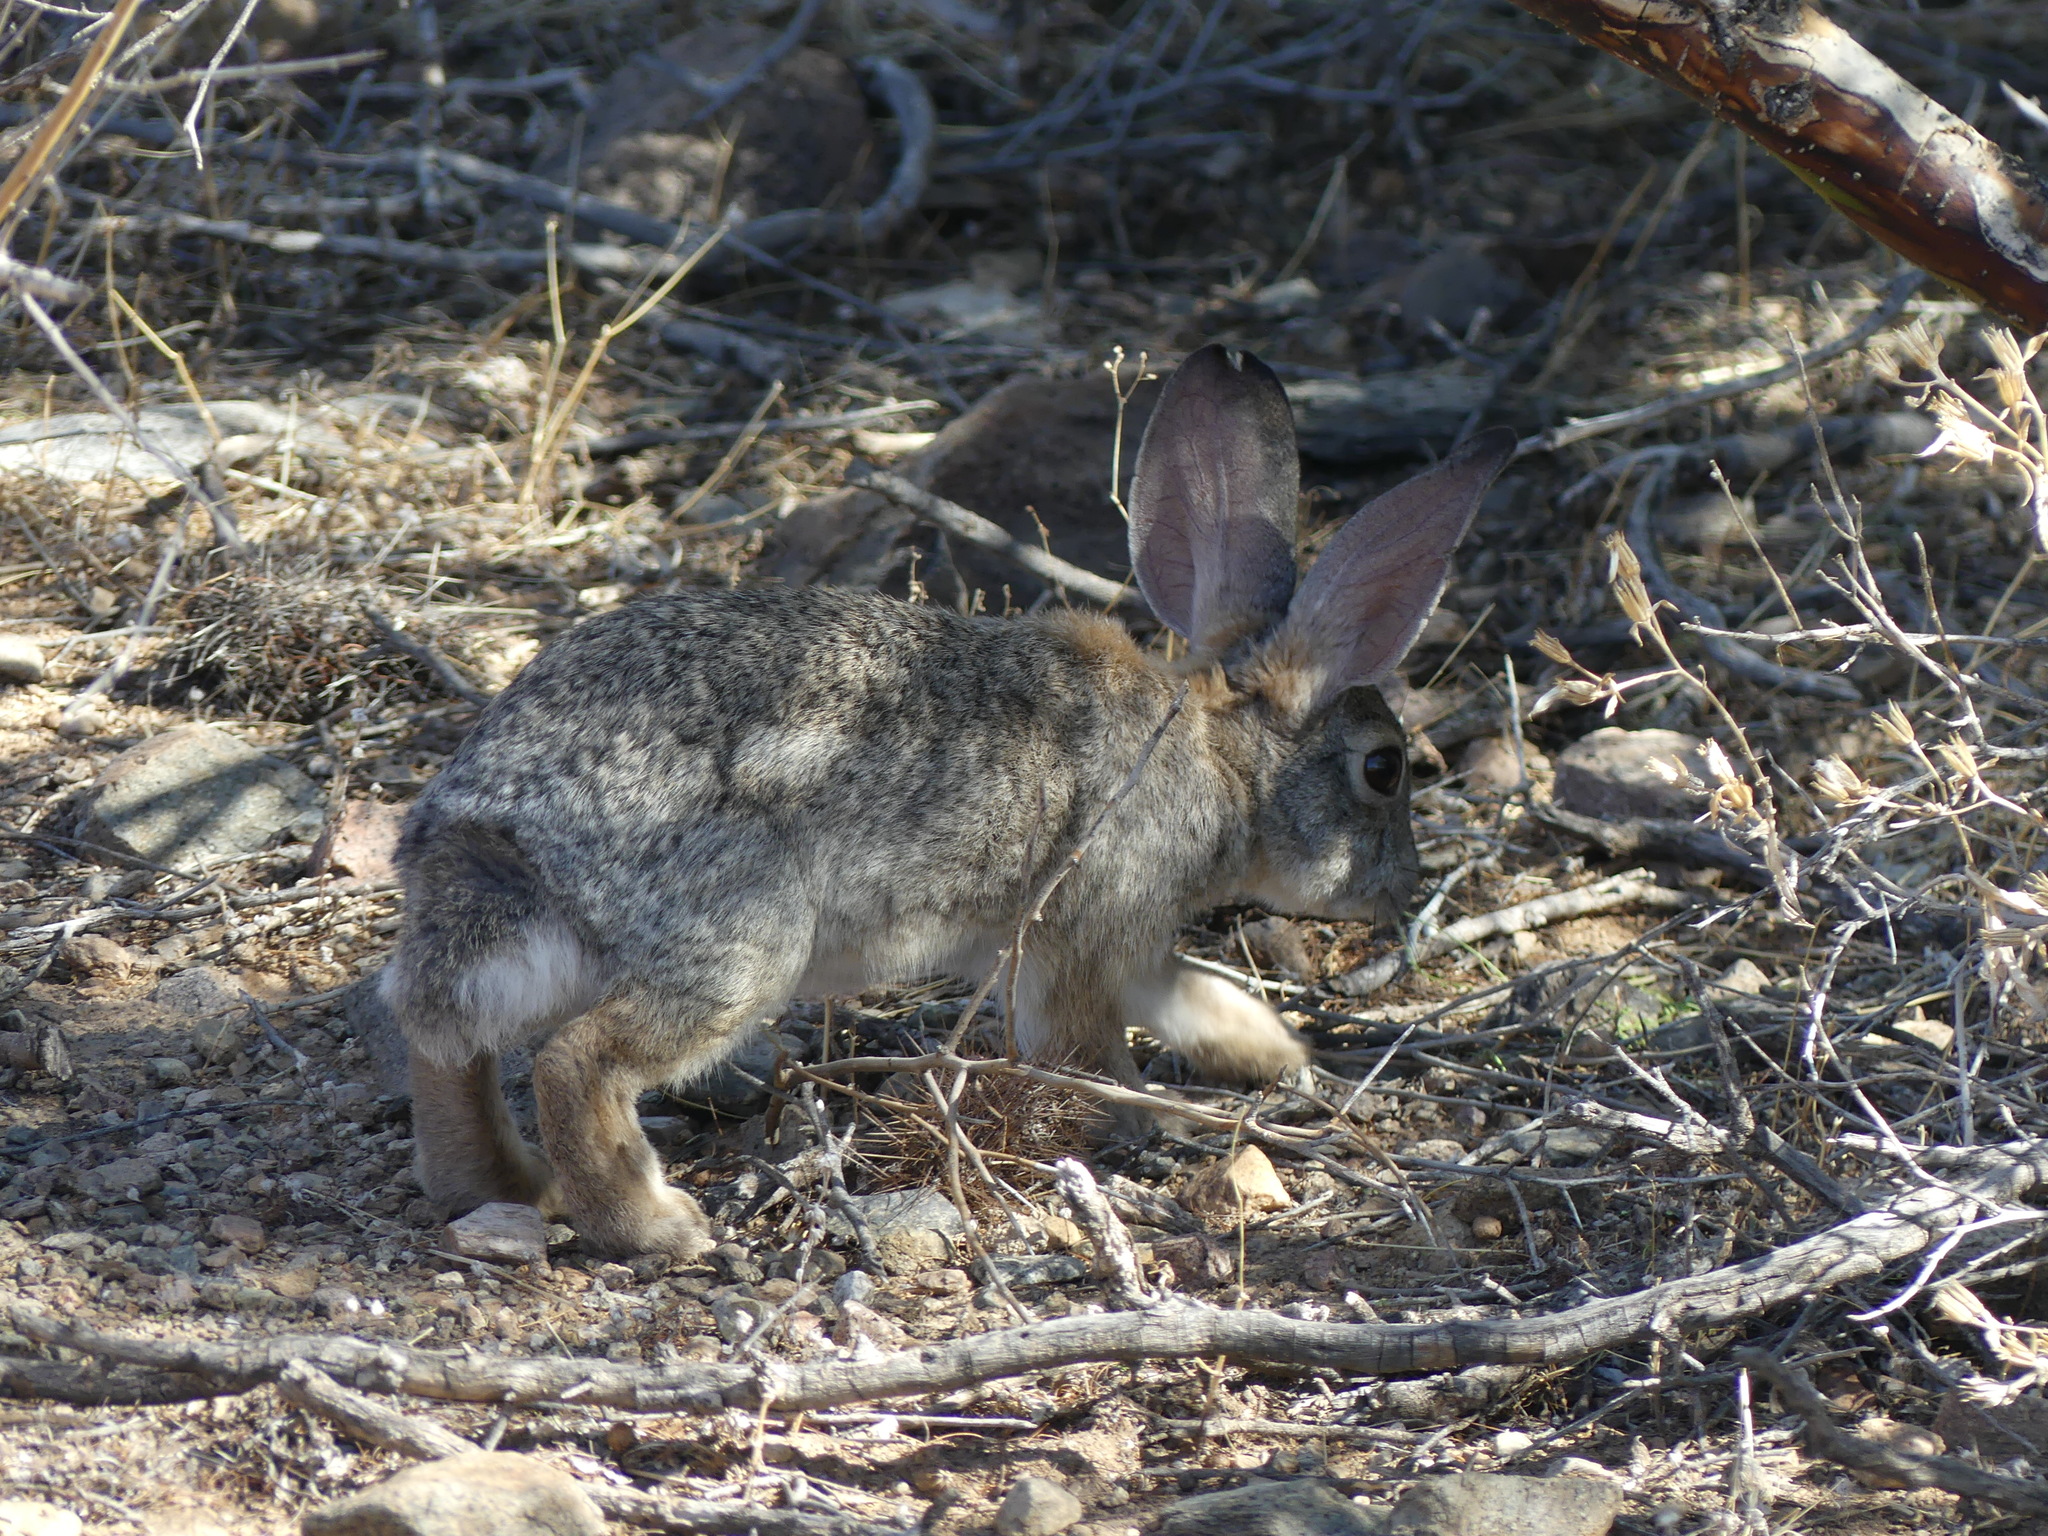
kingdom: Animalia
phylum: Chordata
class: Mammalia
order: Lagomorpha
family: Leporidae
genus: Sylvilagus
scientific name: Sylvilagus audubonii
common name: Desert cottontail
